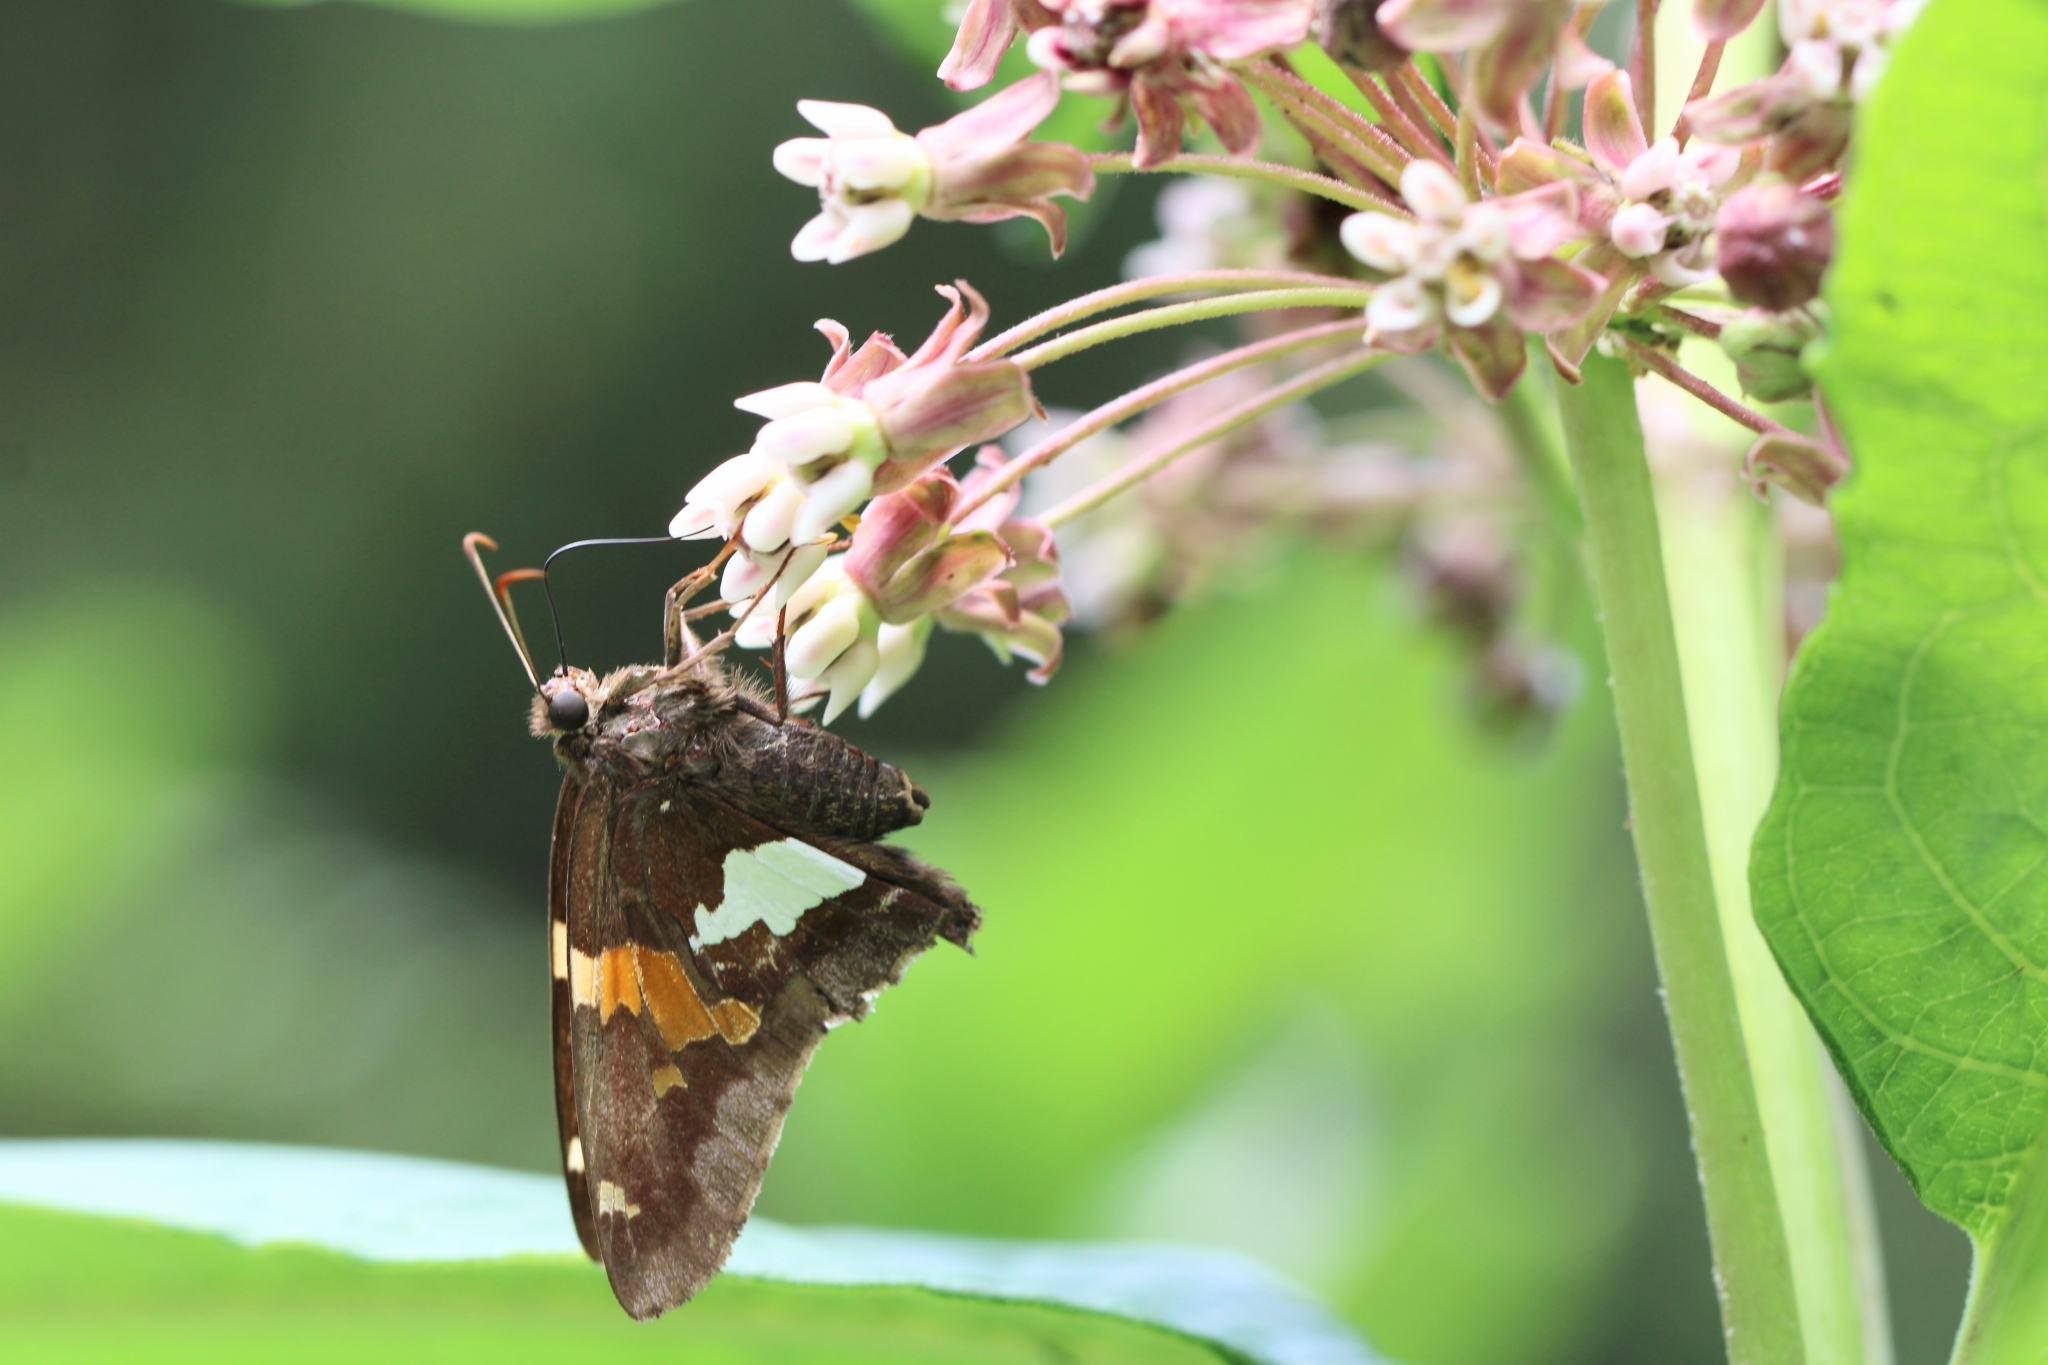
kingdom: Animalia
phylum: Arthropoda
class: Insecta
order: Lepidoptera
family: Hesperiidae
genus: Epargyreus
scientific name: Epargyreus clarus
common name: Silver-spotted skipper
